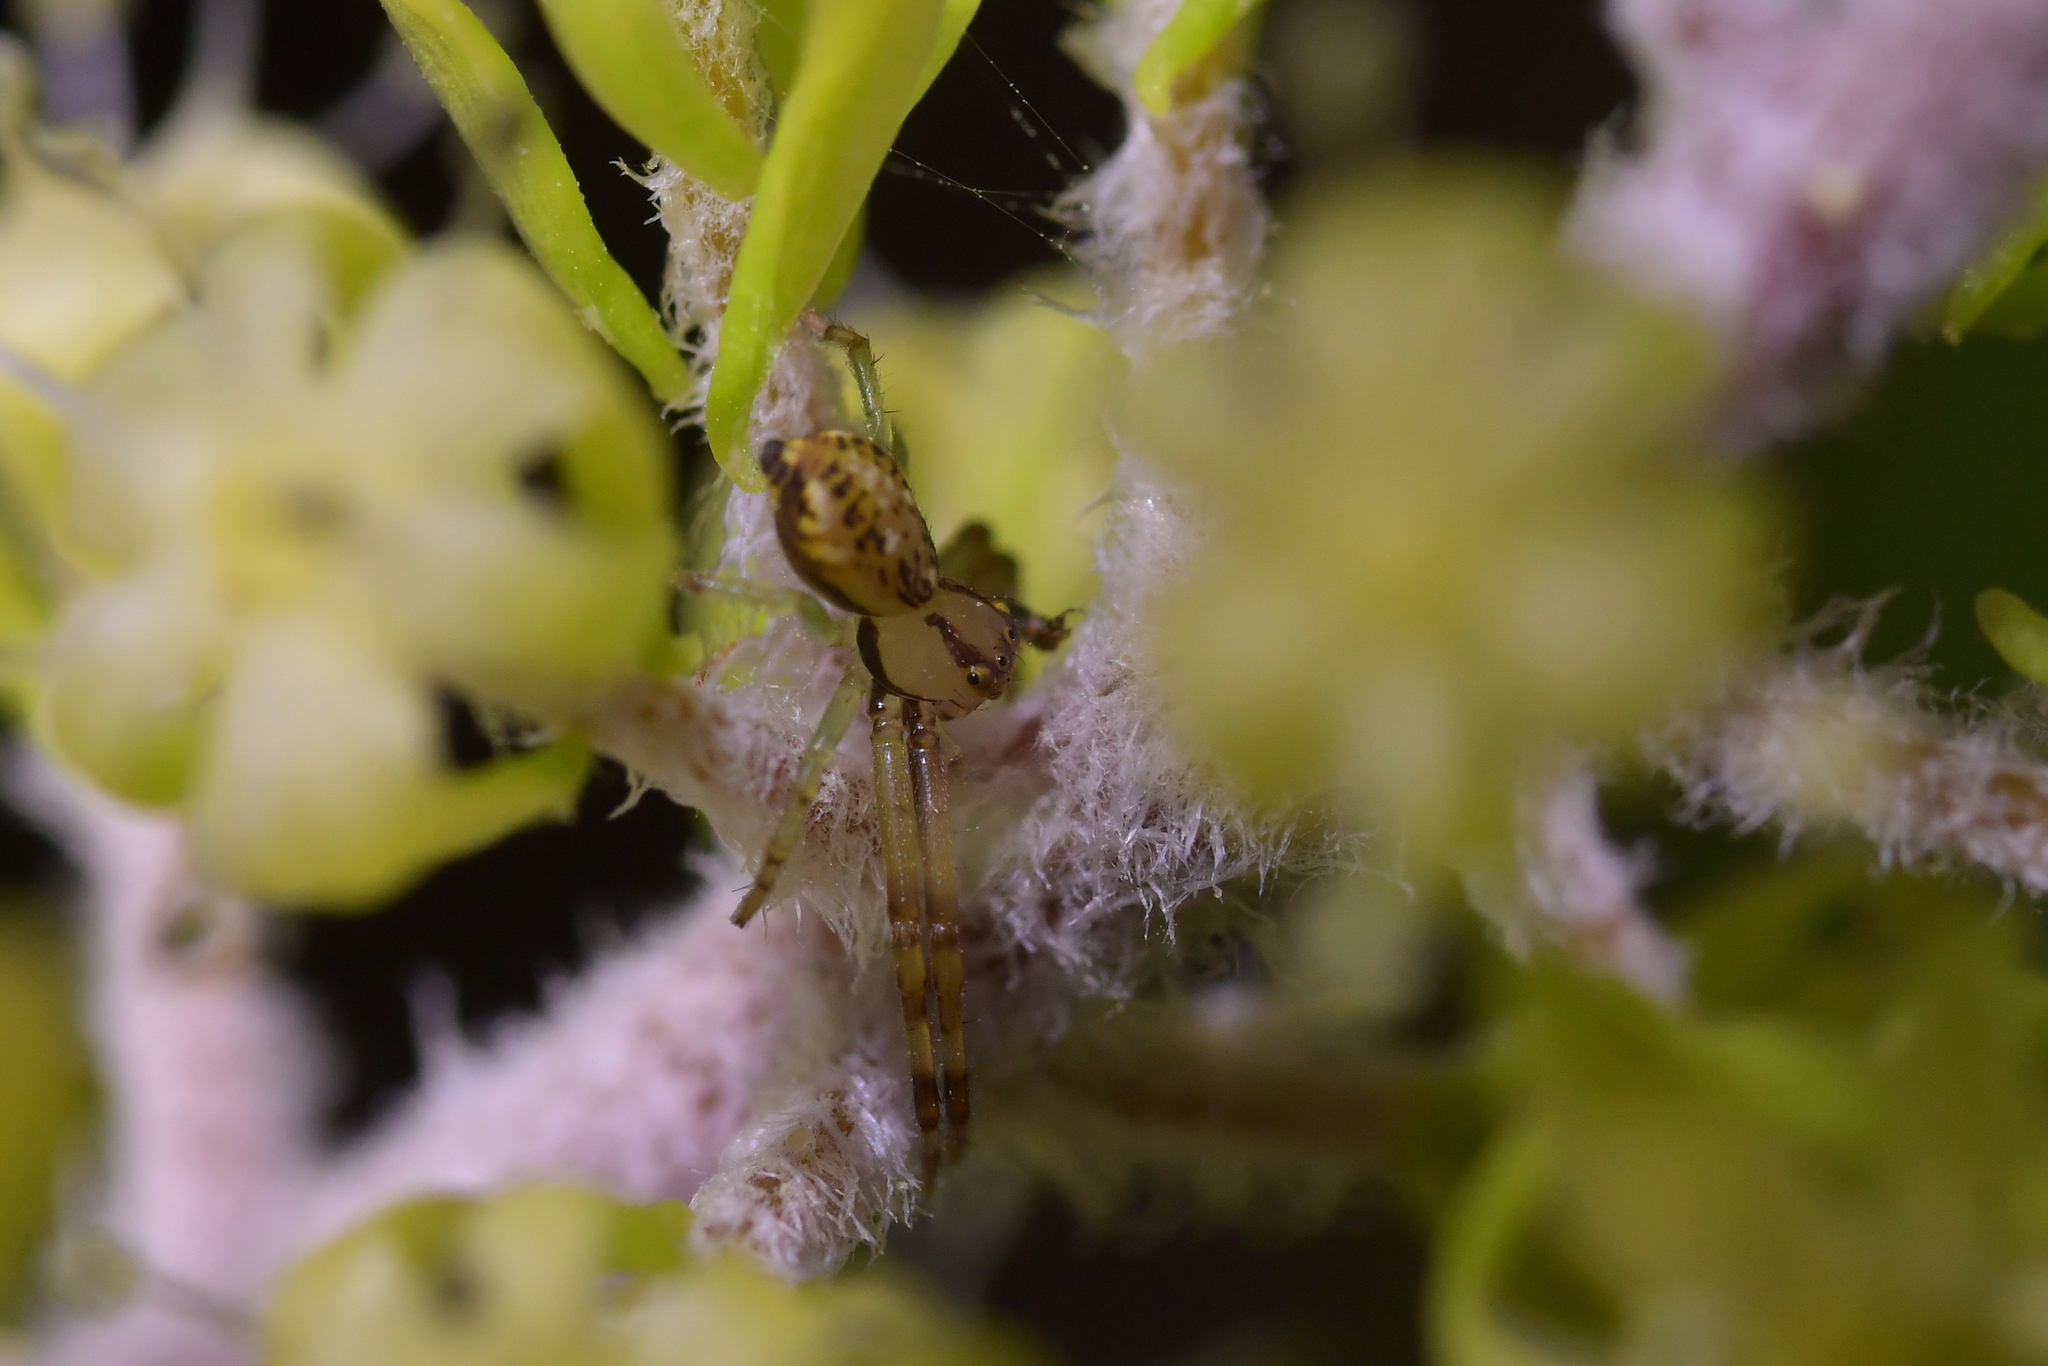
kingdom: Animalia
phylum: Arthropoda
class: Arachnida
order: Araneae
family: Thomisidae
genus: Diaea
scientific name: Diaea ambara
